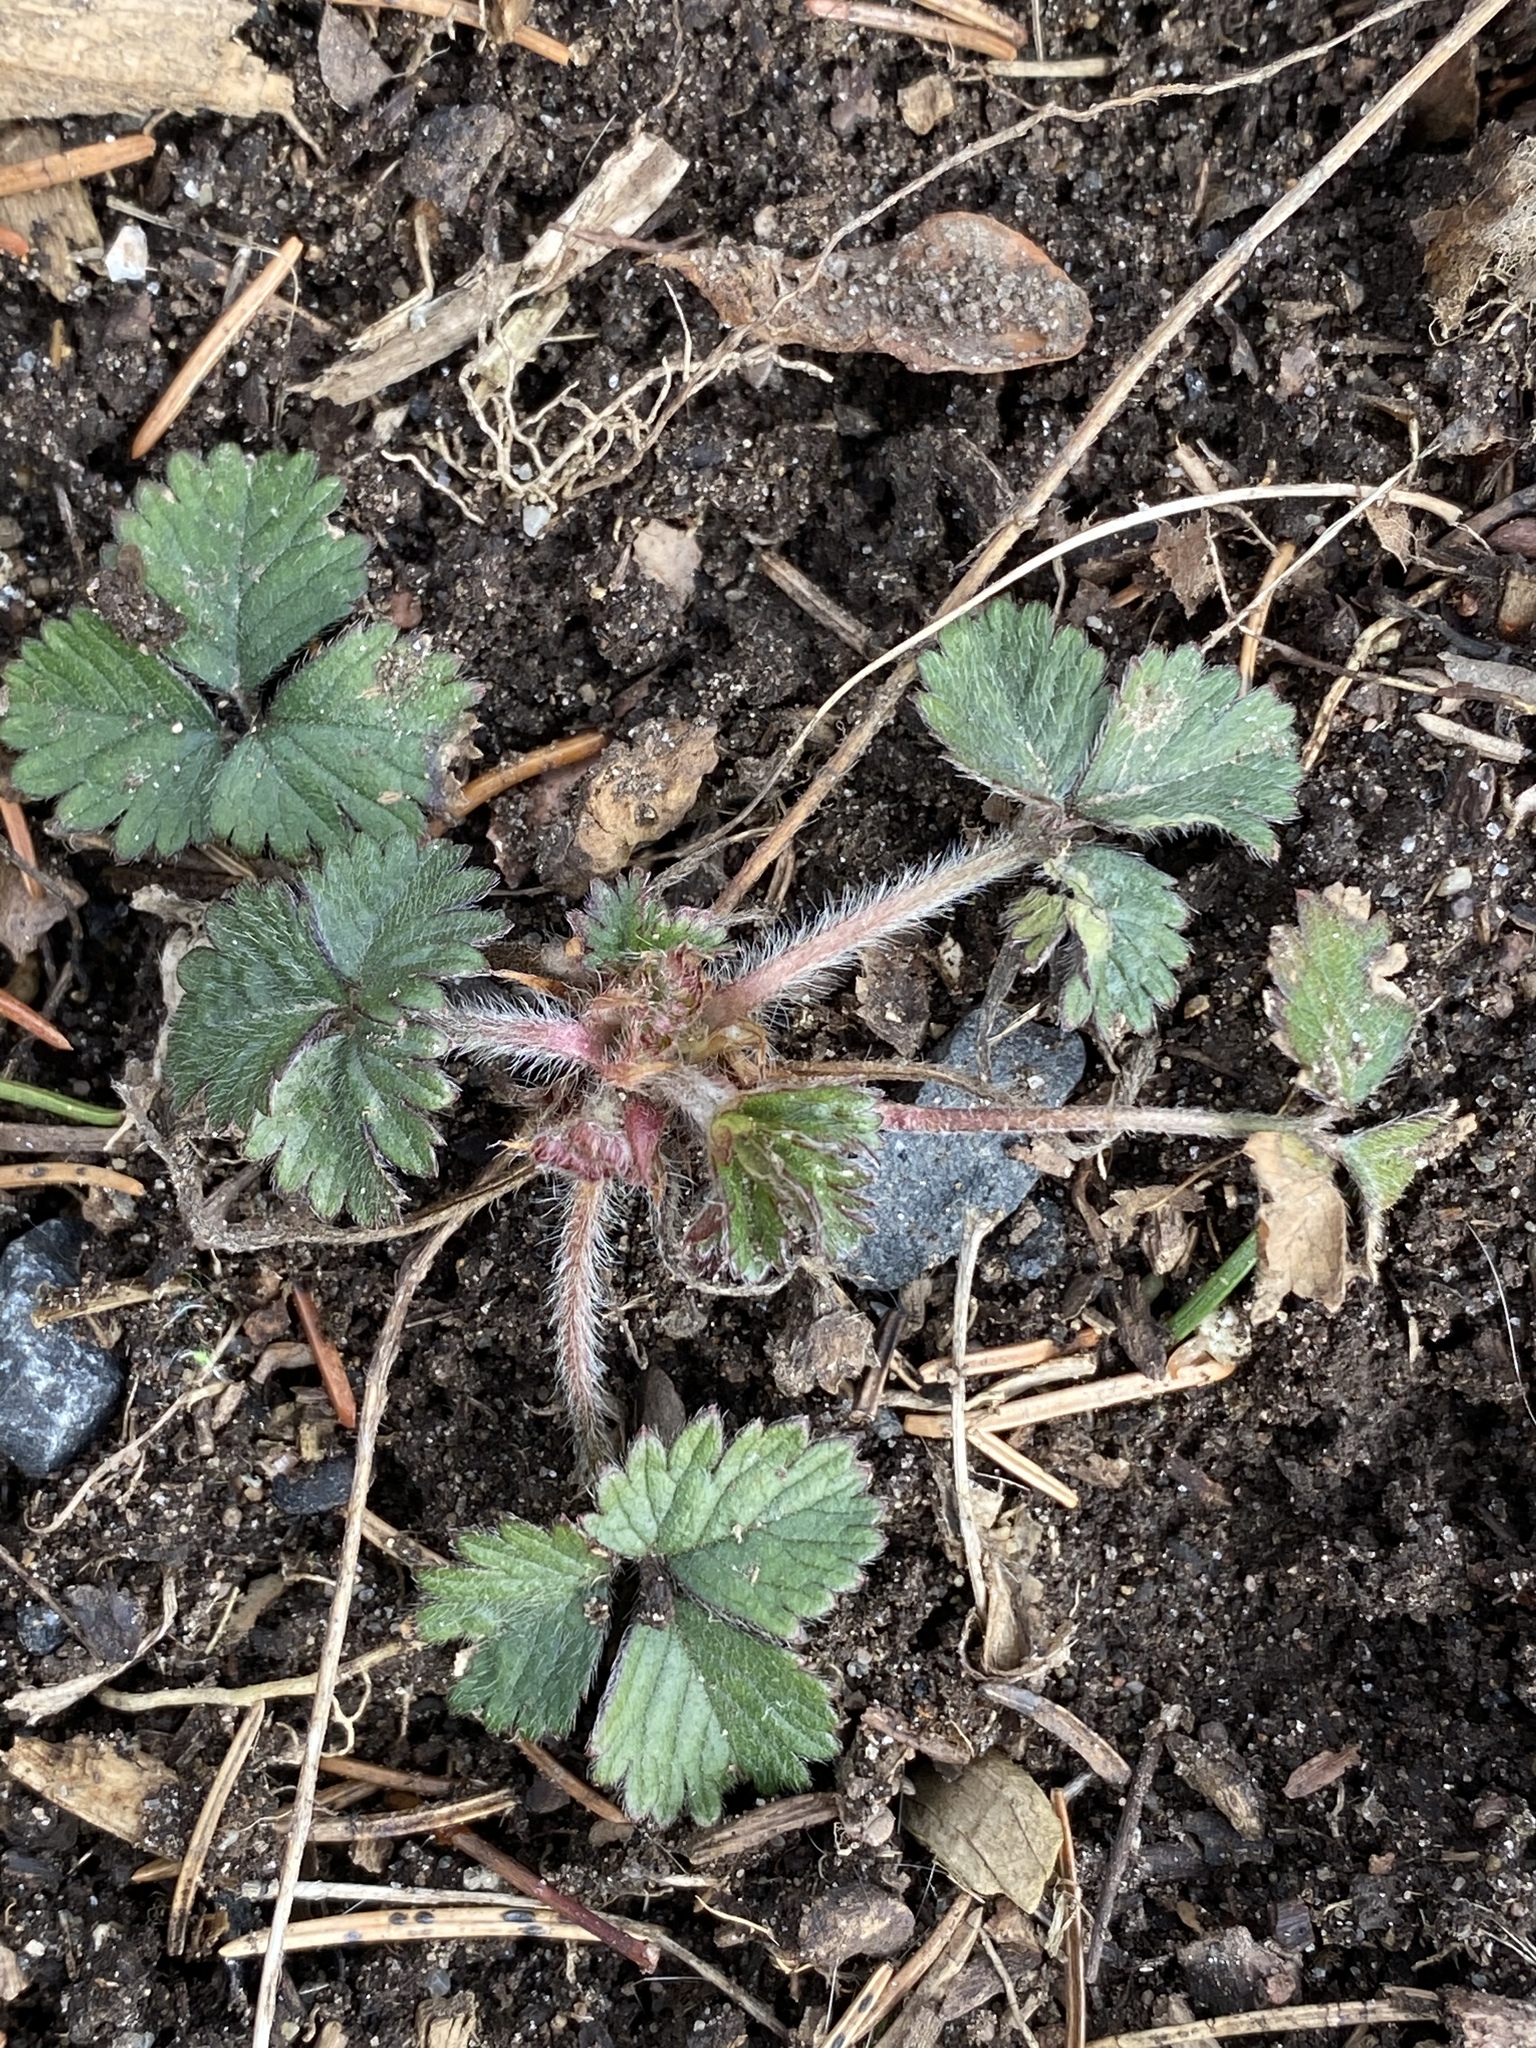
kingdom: Plantae
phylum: Tracheophyta
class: Magnoliopsida
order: Rosales
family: Rosaceae
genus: Potentilla
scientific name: Potentilla indica
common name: Yellow-flowered strawberry
